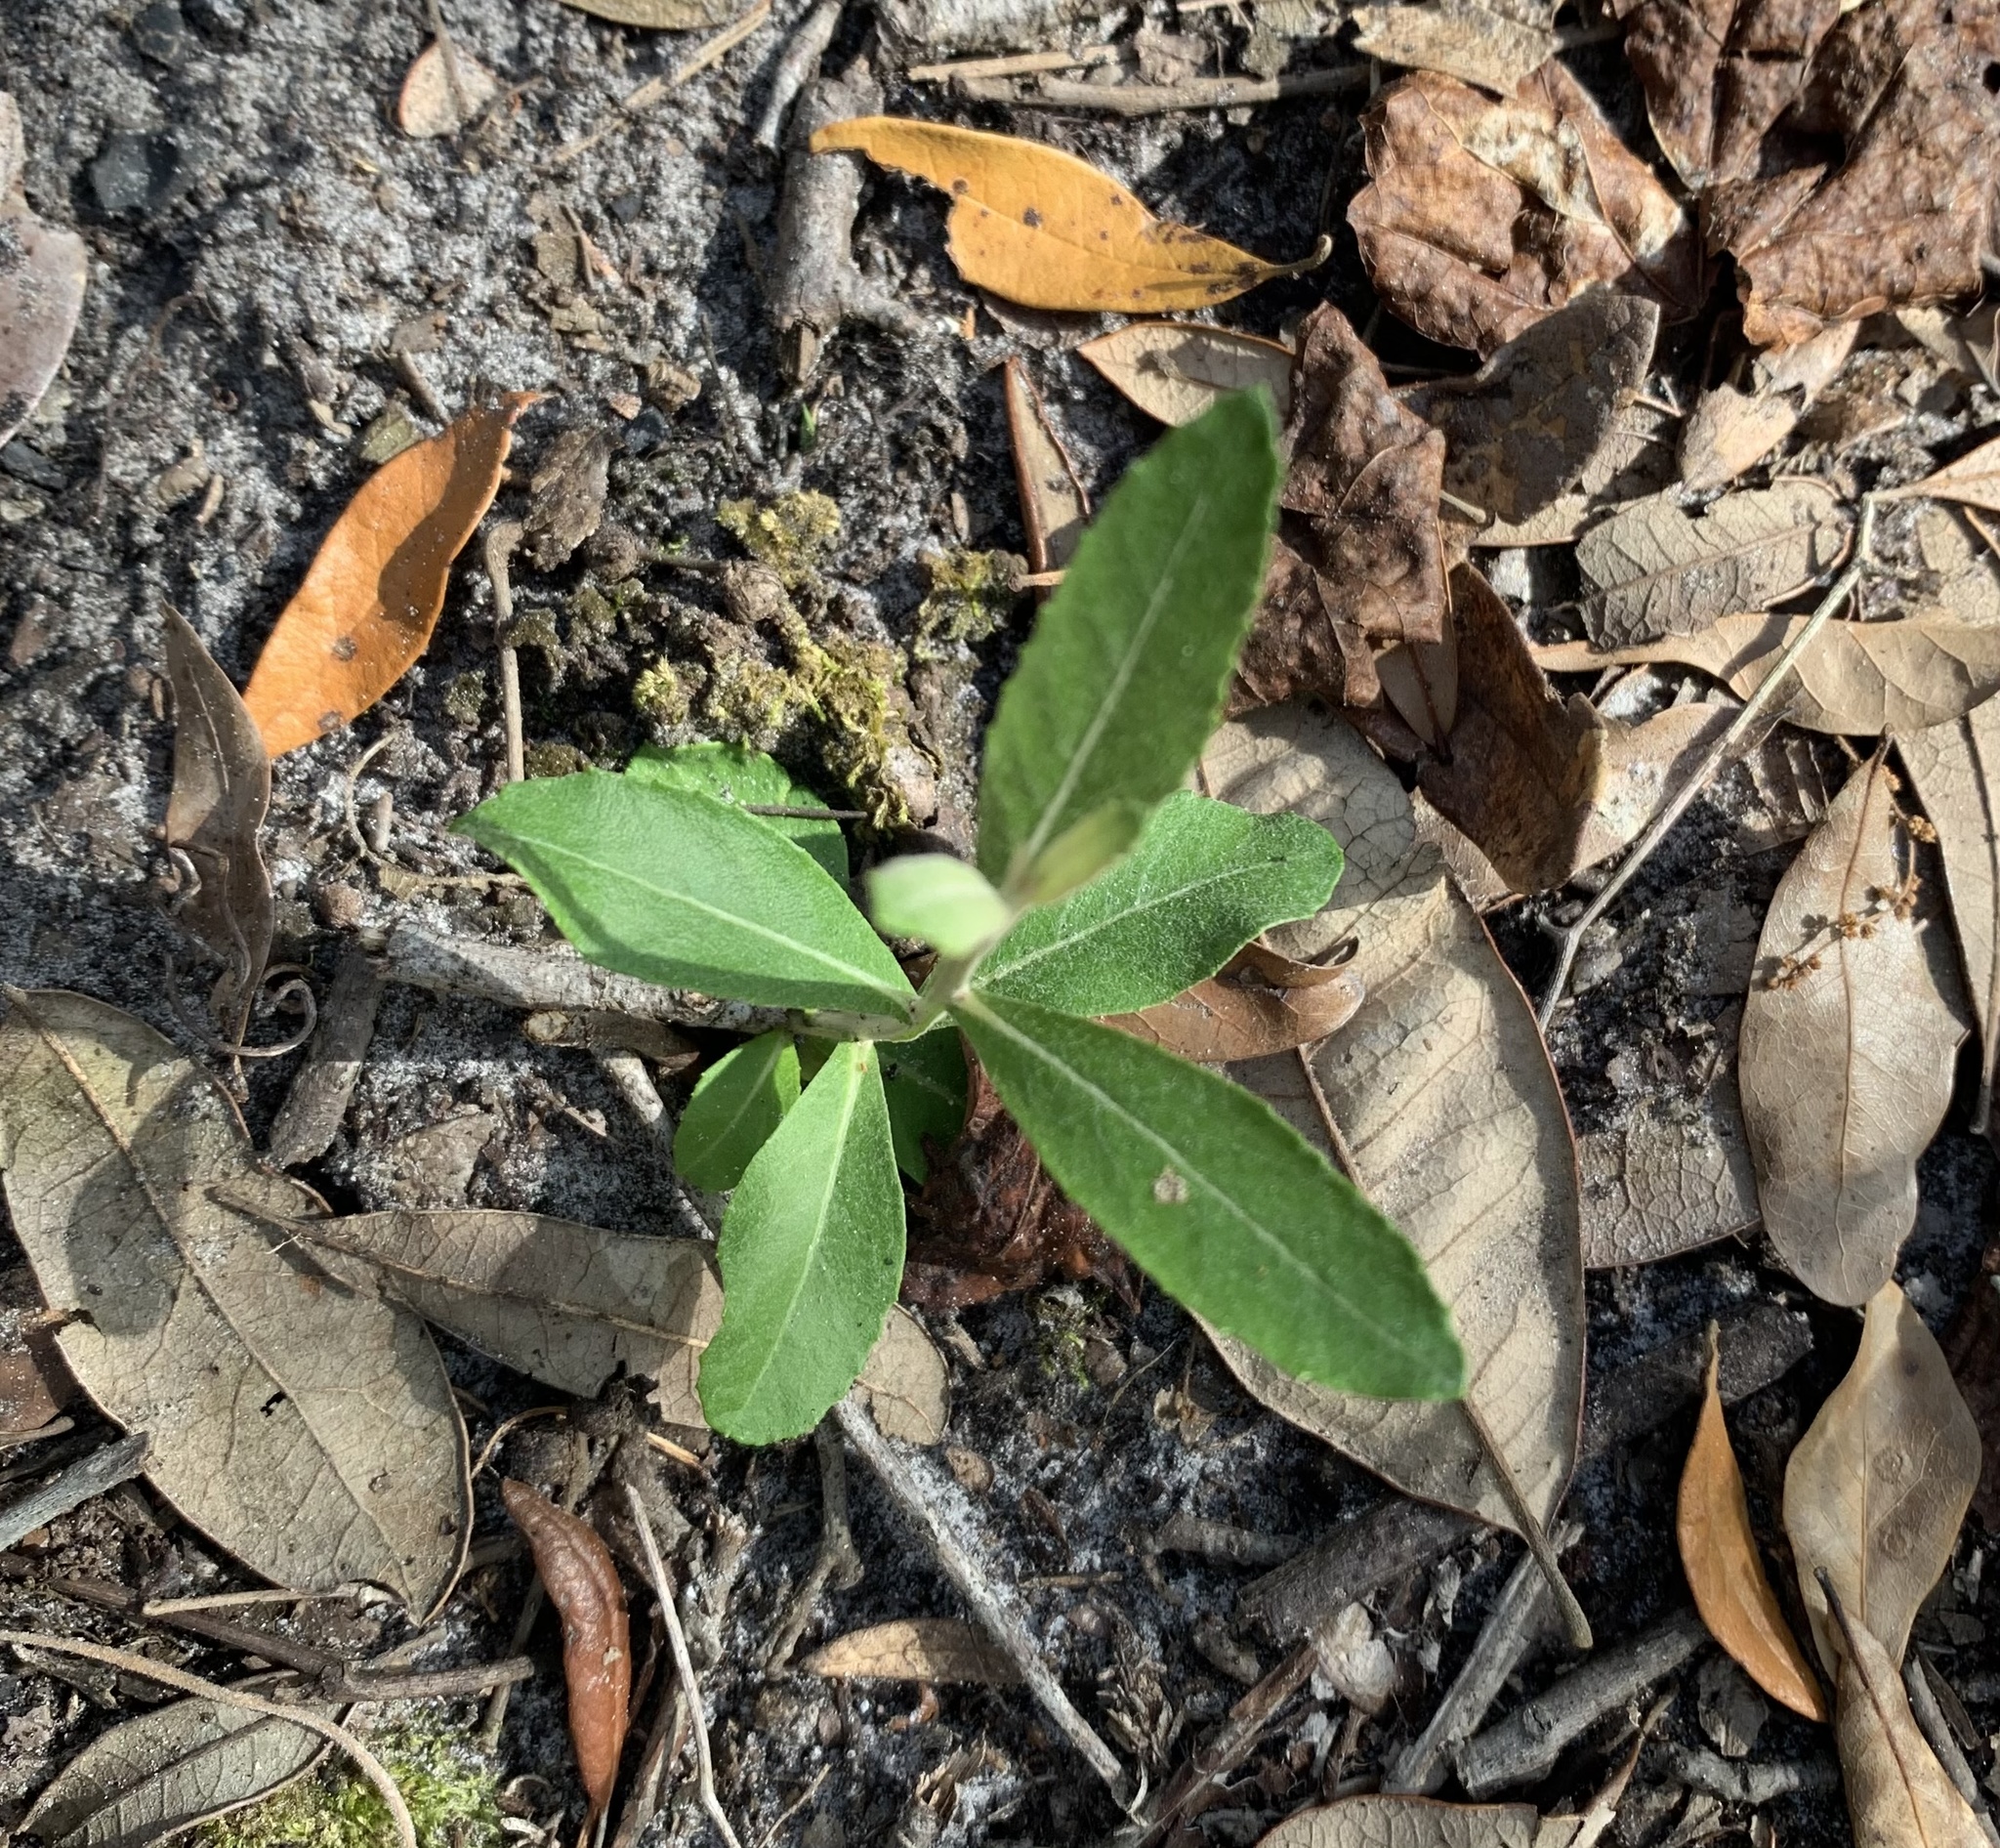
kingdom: Plantae
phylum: Tracheophyta
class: Magnoliopsida
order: Asterales
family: Asteraceae
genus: Pterocaulon
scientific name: Pterocaulon pycnostachyum
